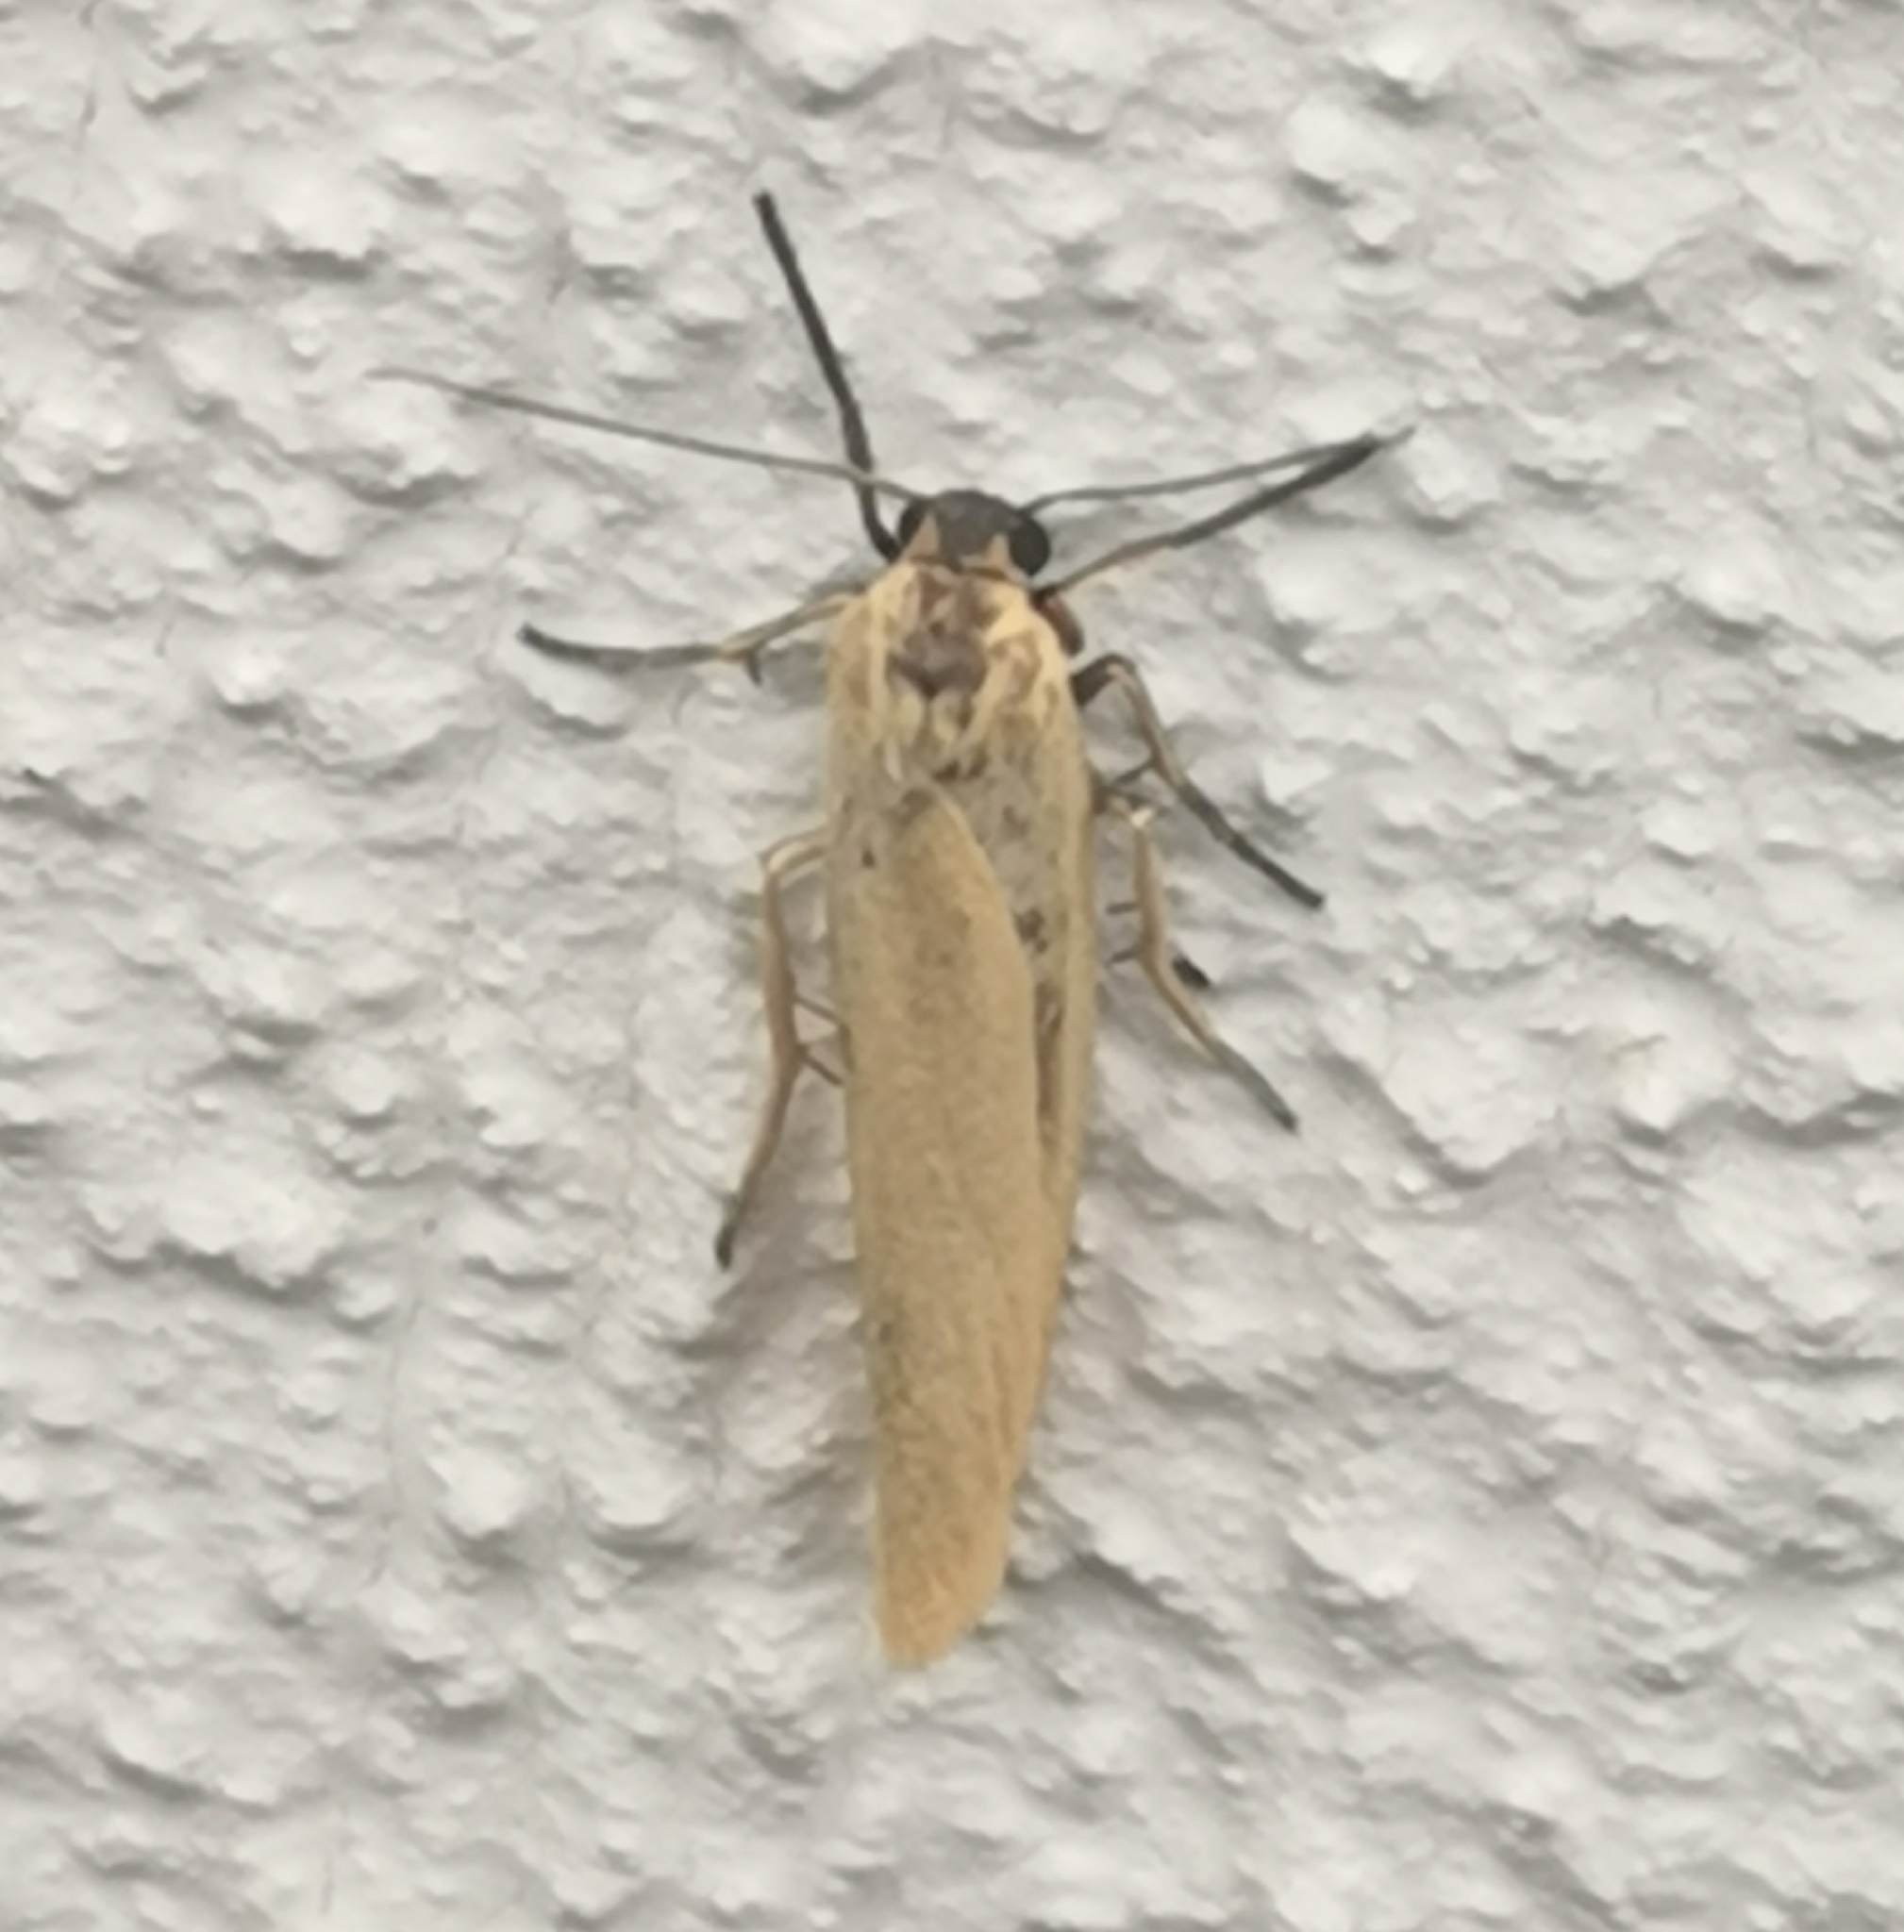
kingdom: Animalia
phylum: Arthropoda
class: Insecta
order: Lepidoptera
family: Erebidae
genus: Indalia
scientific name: Indalia lutarella
